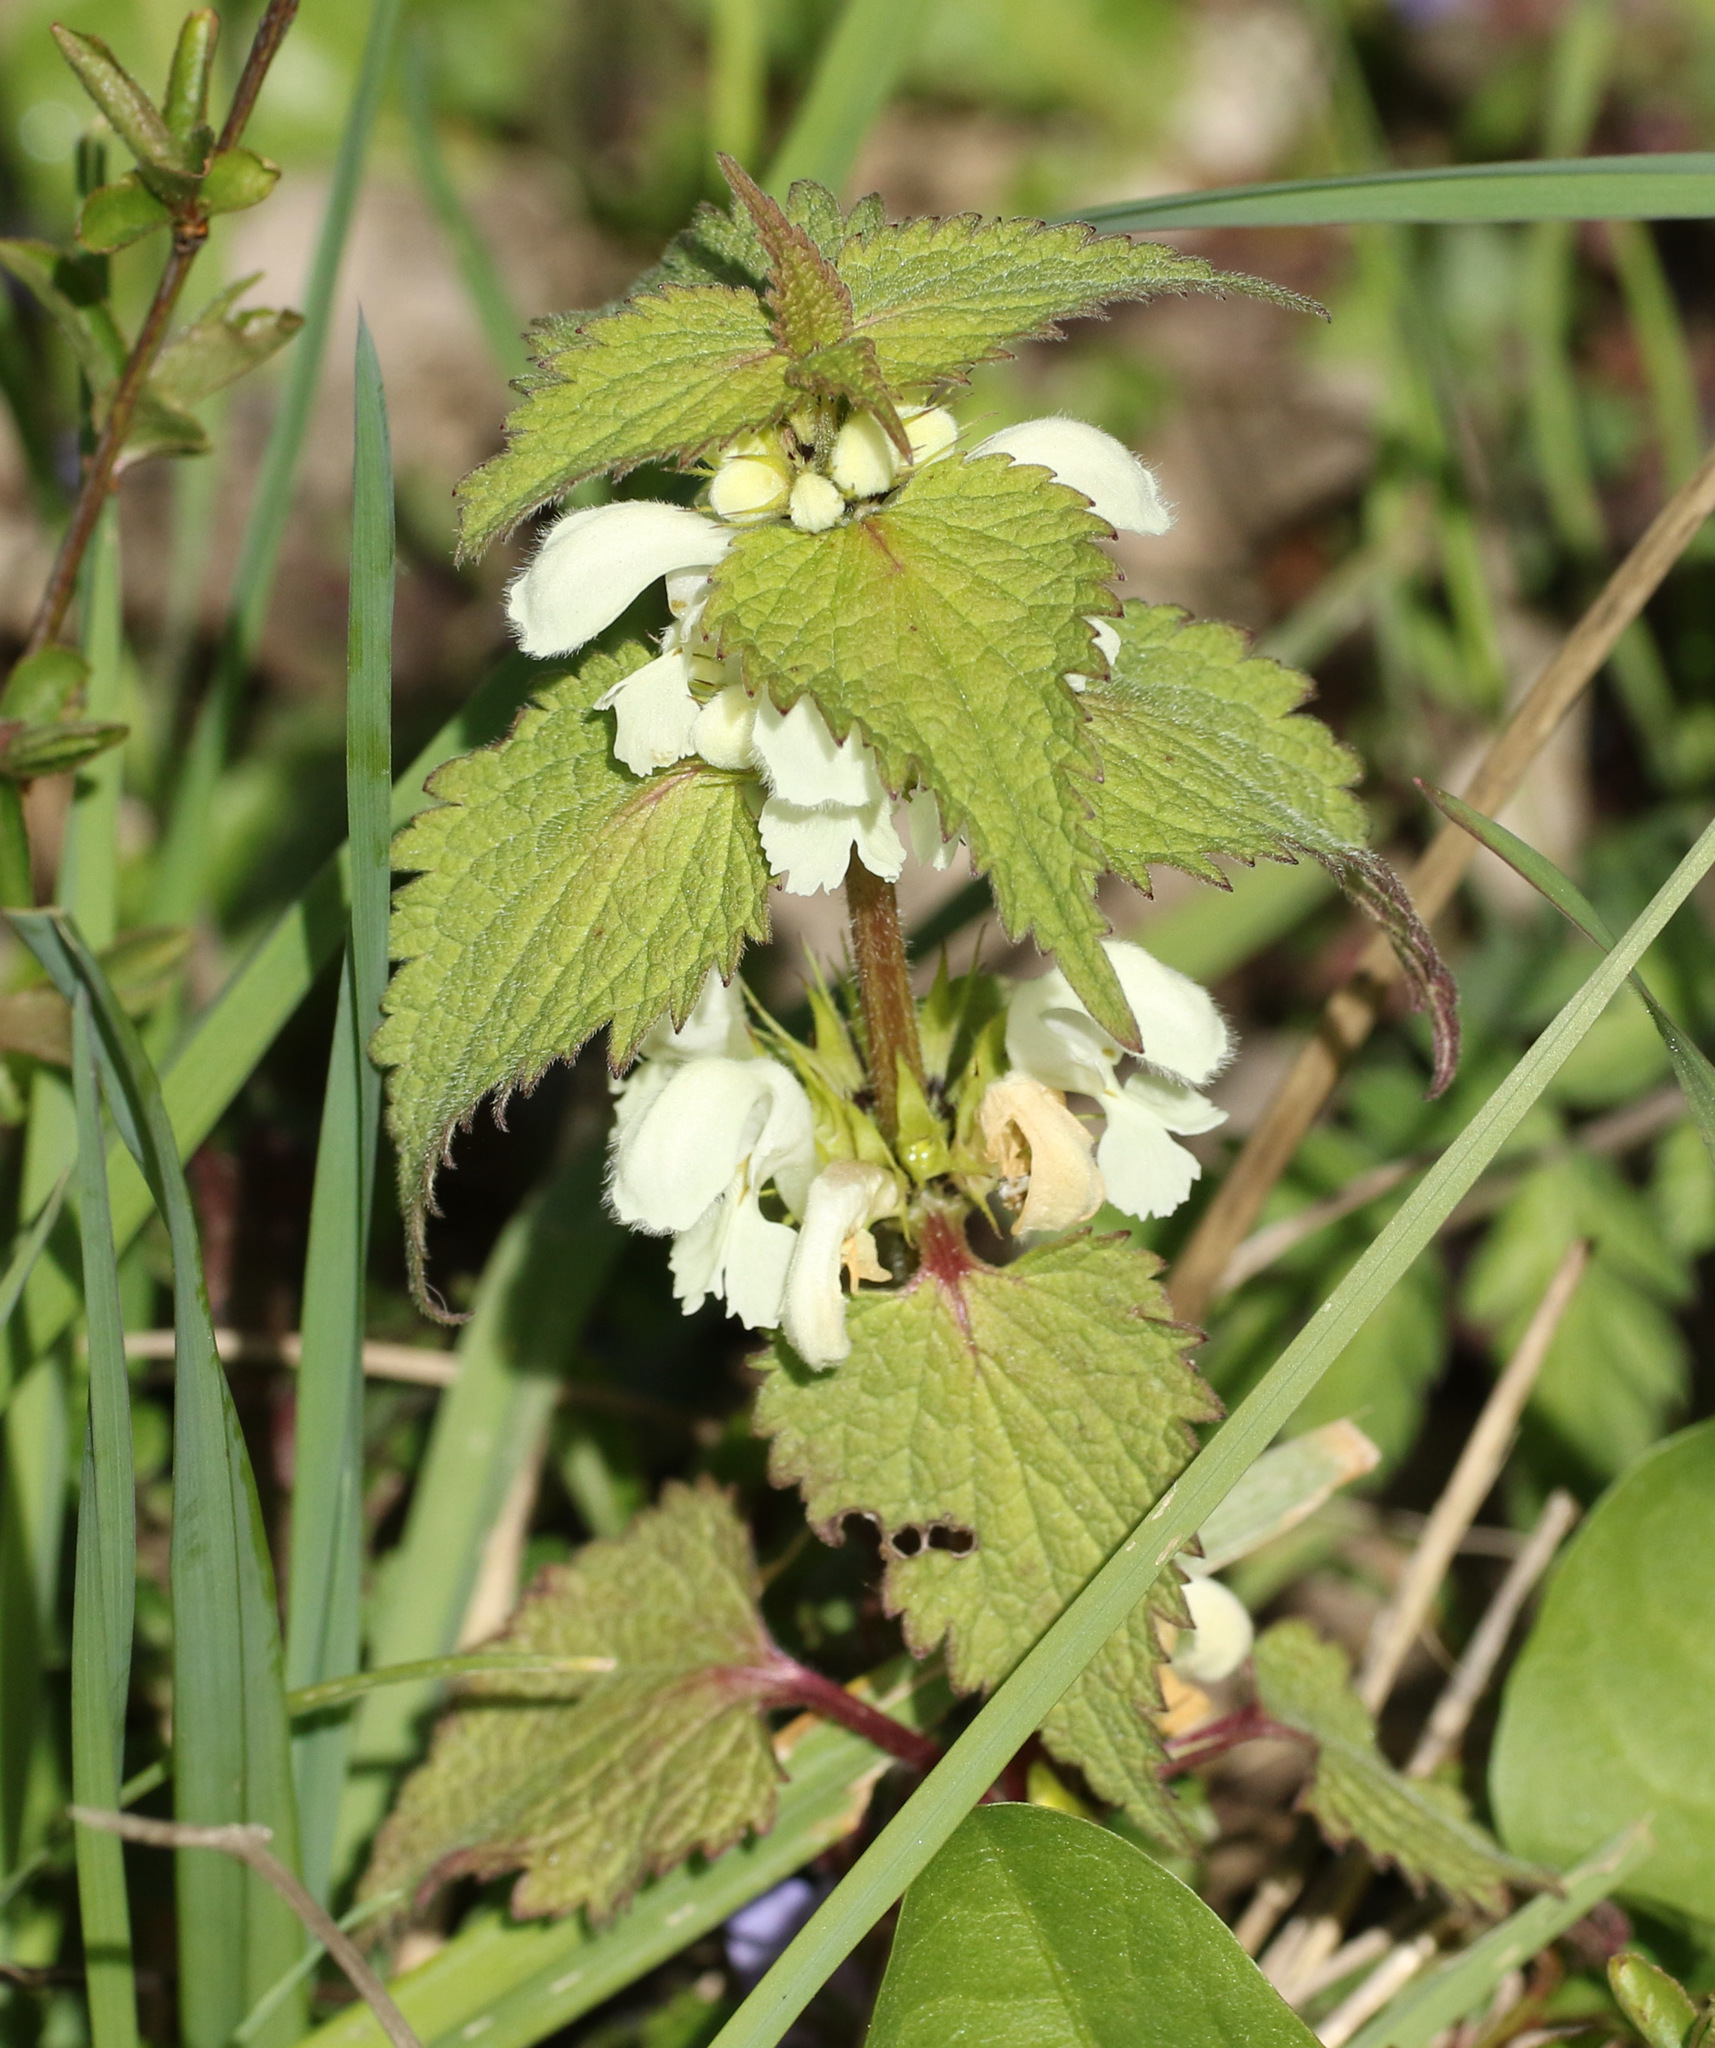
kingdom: Plantae
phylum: Tracheophyta
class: Magnoliopsida
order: Lamiales
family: Lamiaceae
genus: Lamium
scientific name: Lamium album
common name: White dead-nettle
